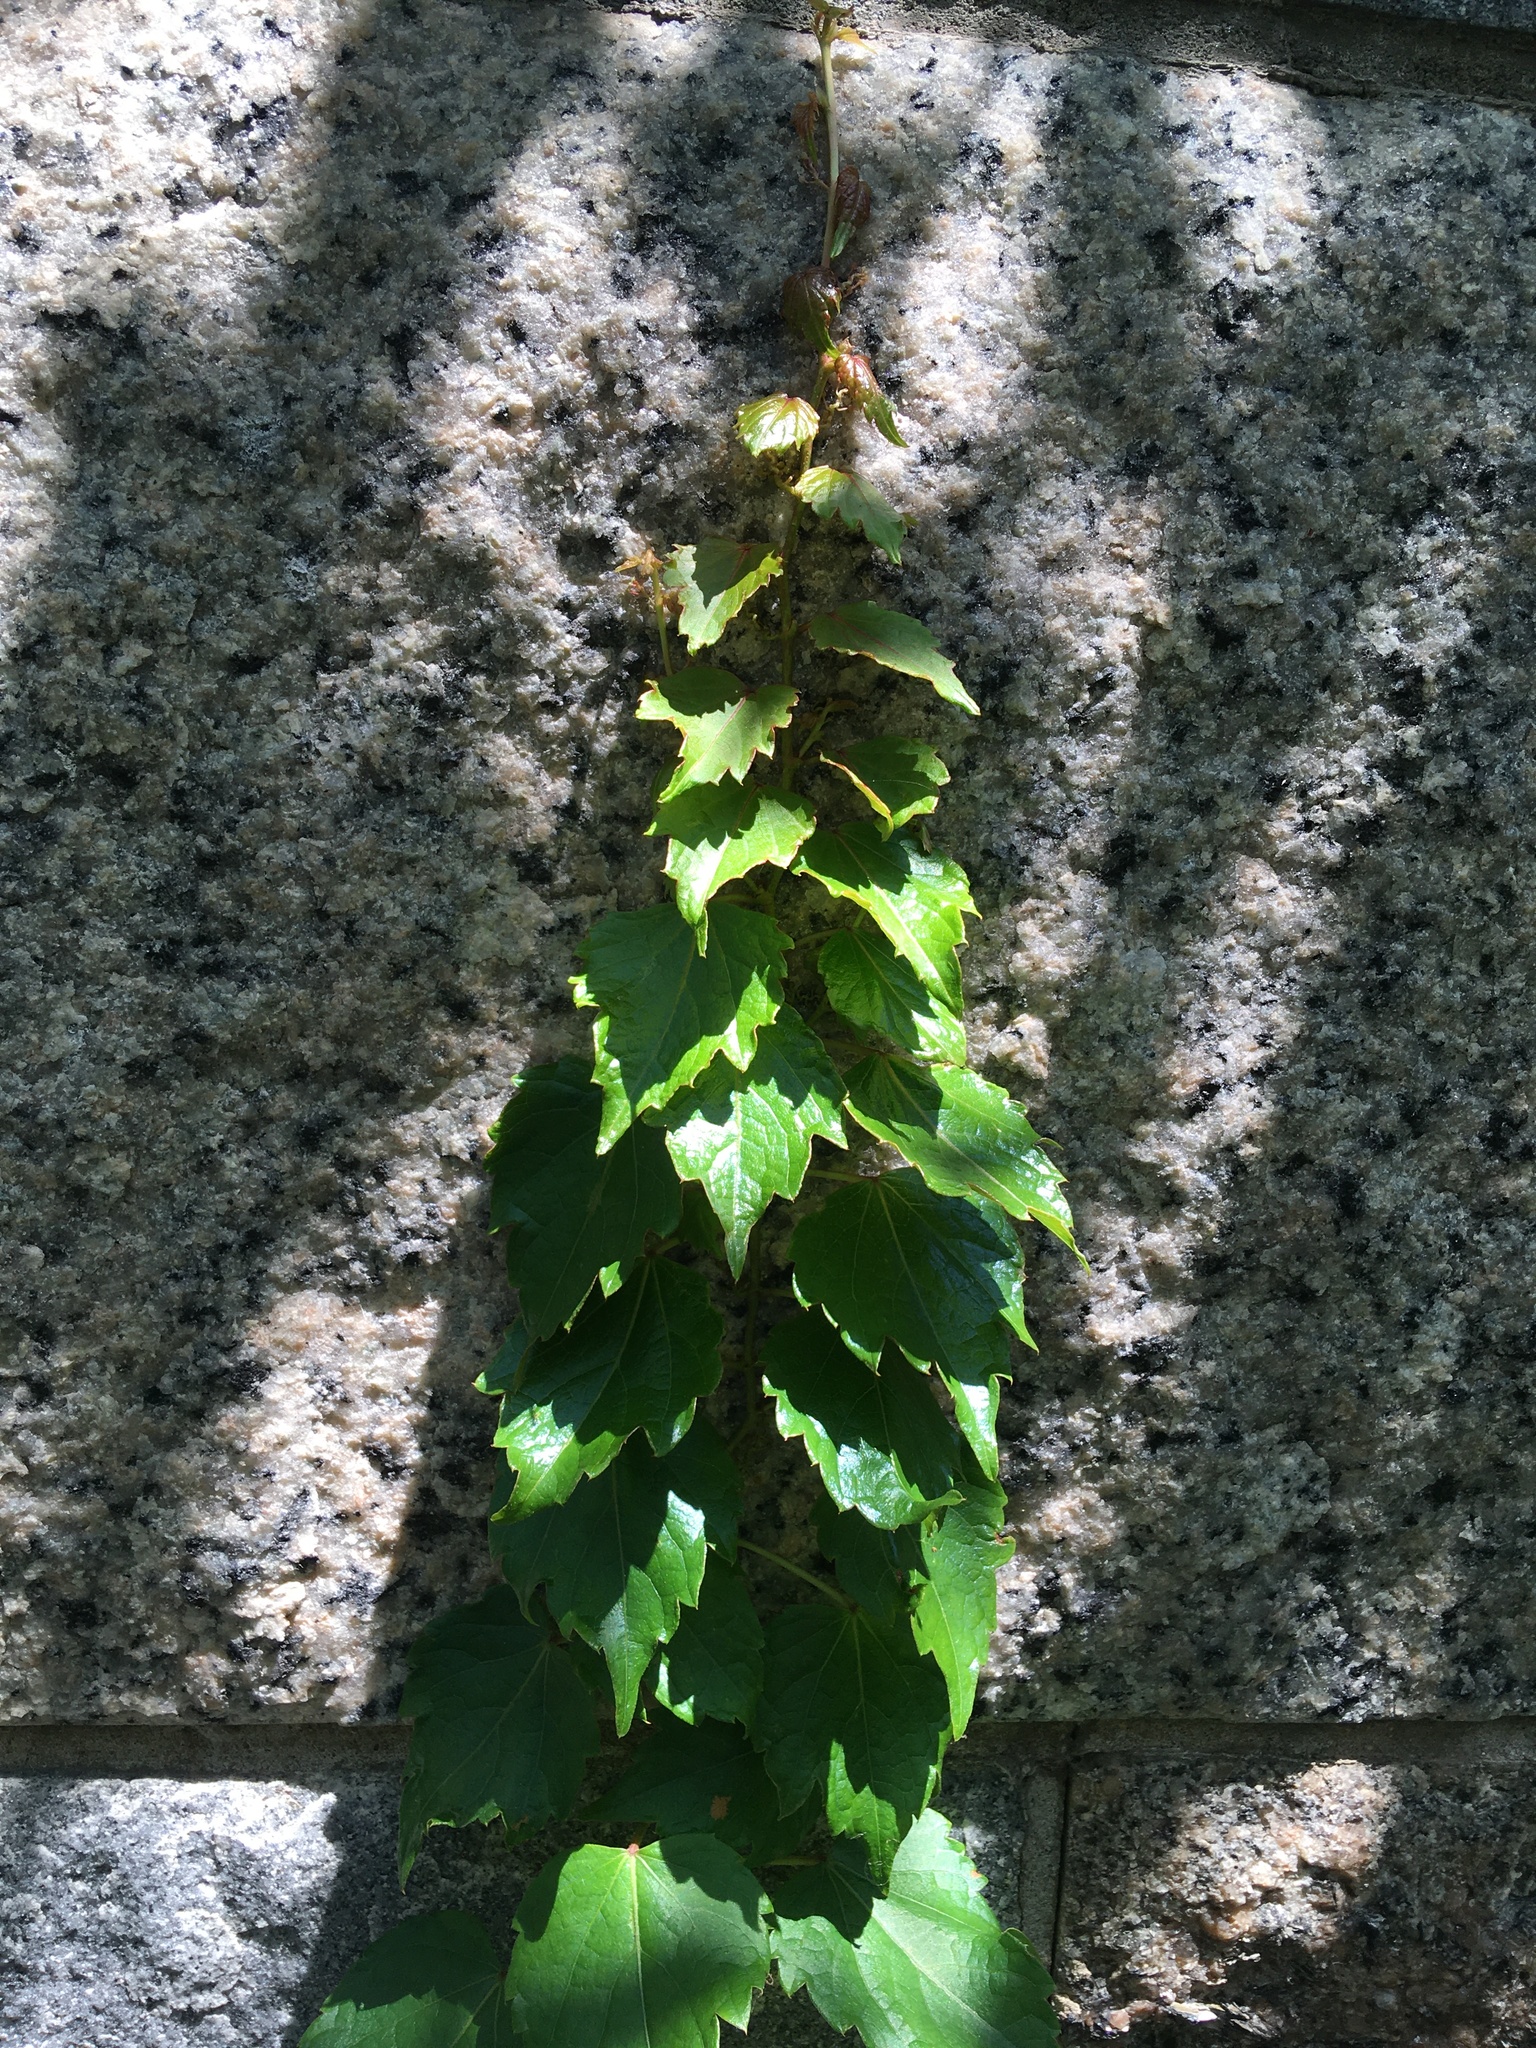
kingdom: Plantae
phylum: Tracheophyta
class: Magnoliopsida
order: Vitales
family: Vitaceae
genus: Parthenocissus
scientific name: Parthenocissus tricuspidata
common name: Boston ivy
